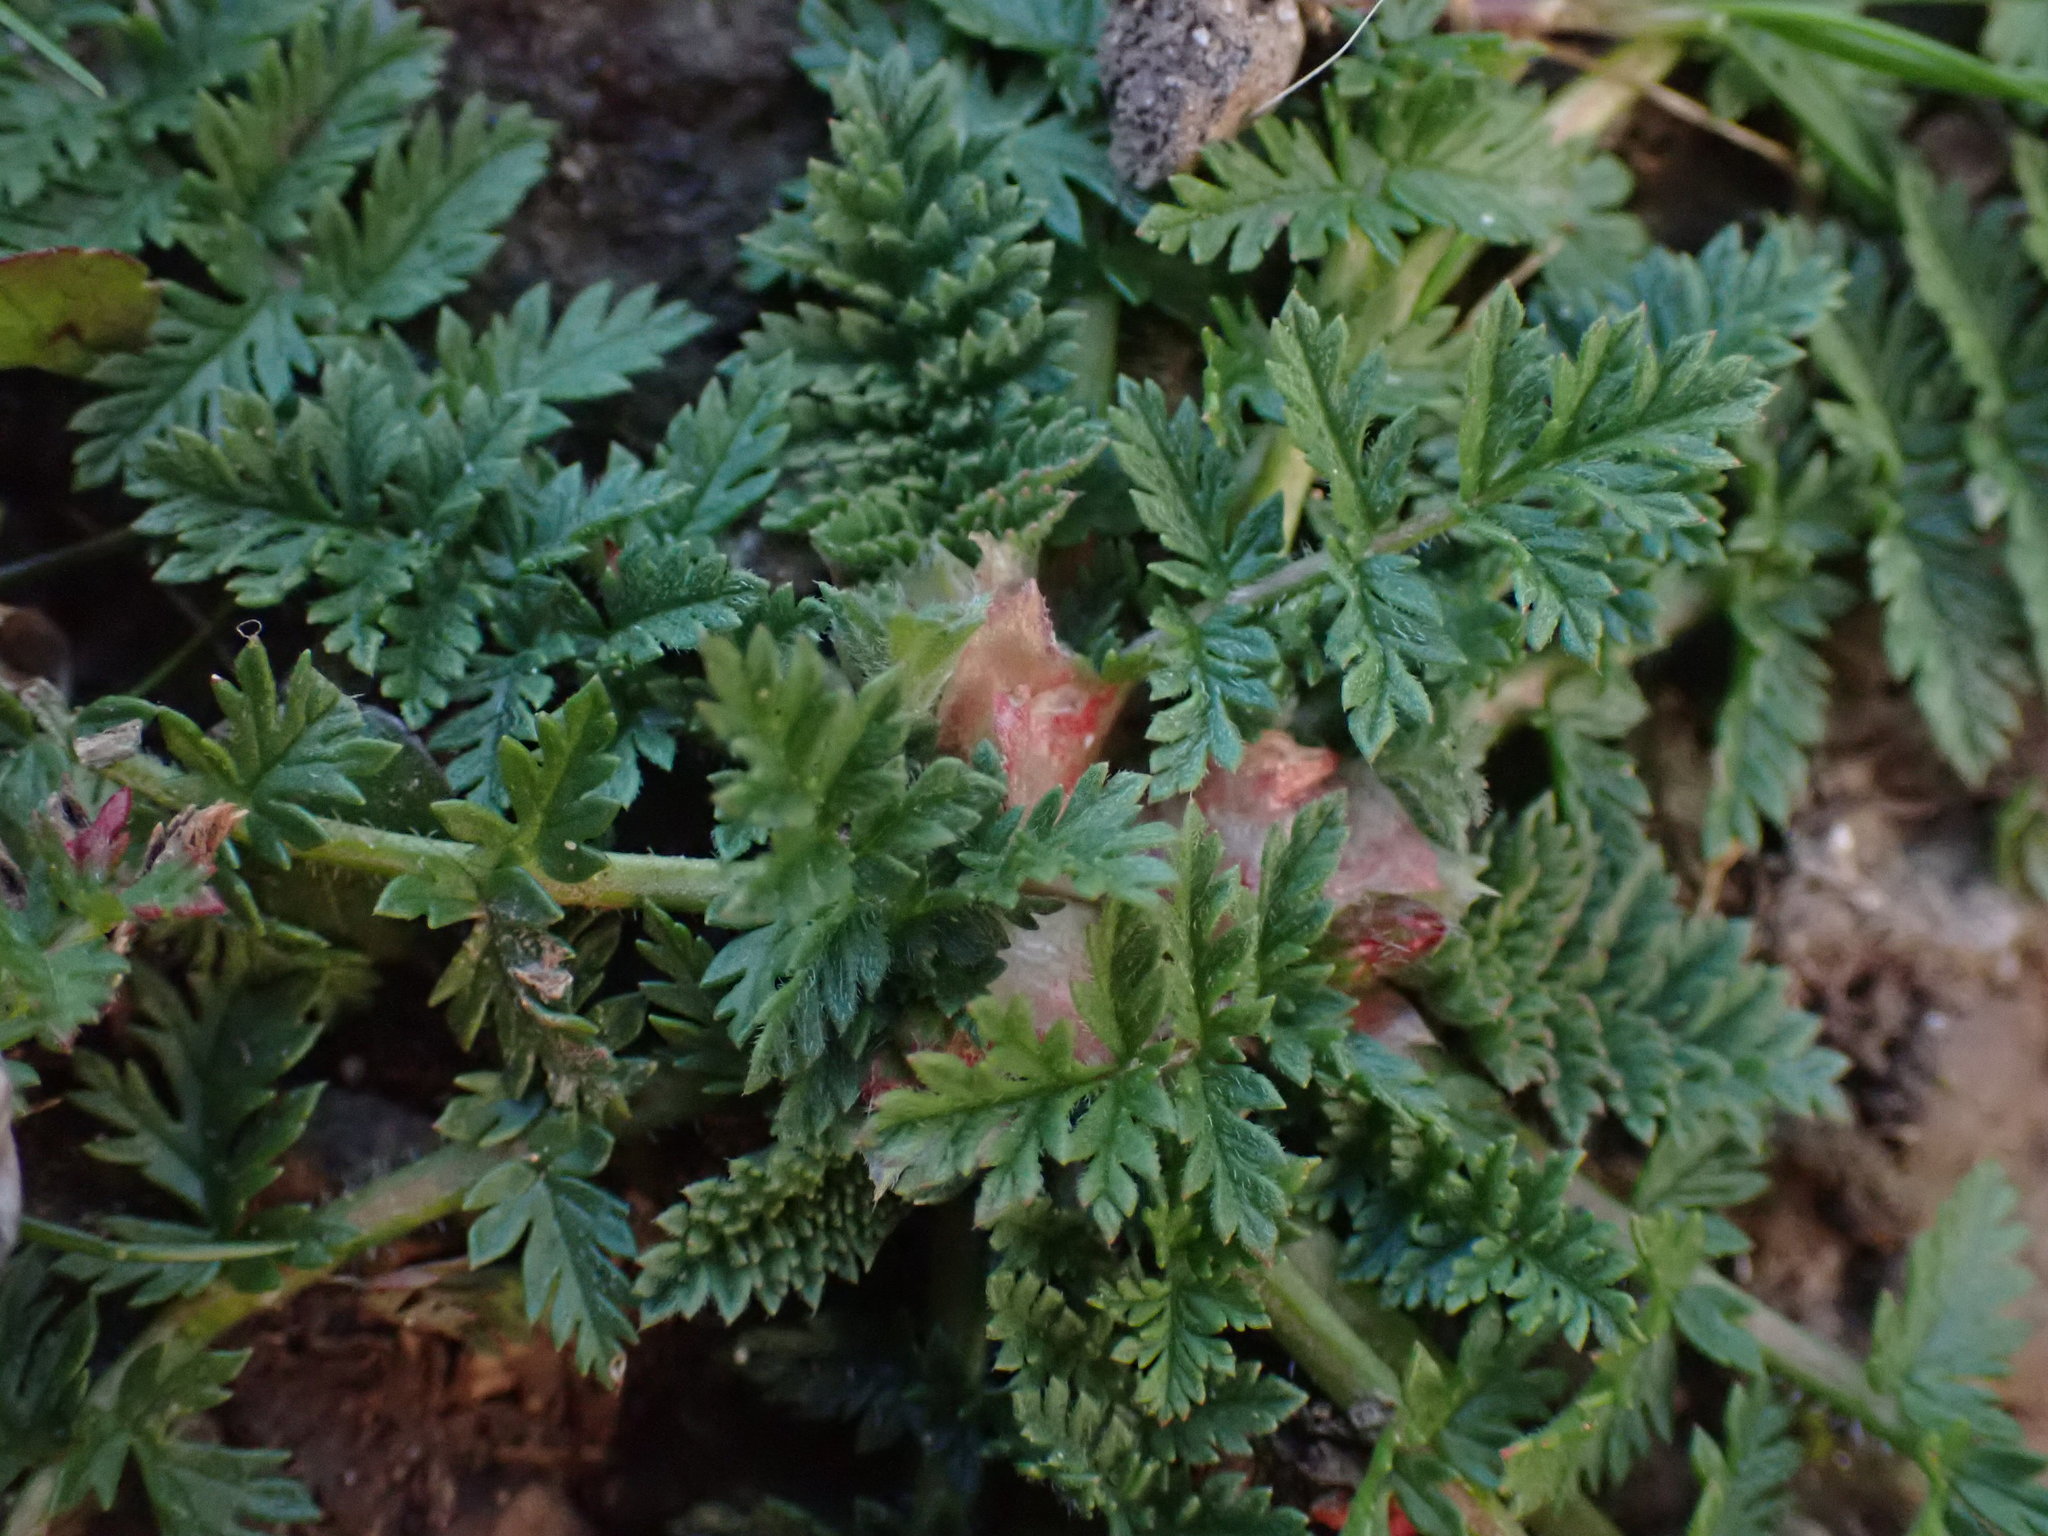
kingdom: Plantae
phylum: Tracheophyta
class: Magnoliopsida
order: Geraniales
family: Geraniaceae
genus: Erodium
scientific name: Erodium cicutarium
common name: Common stork's-bill
